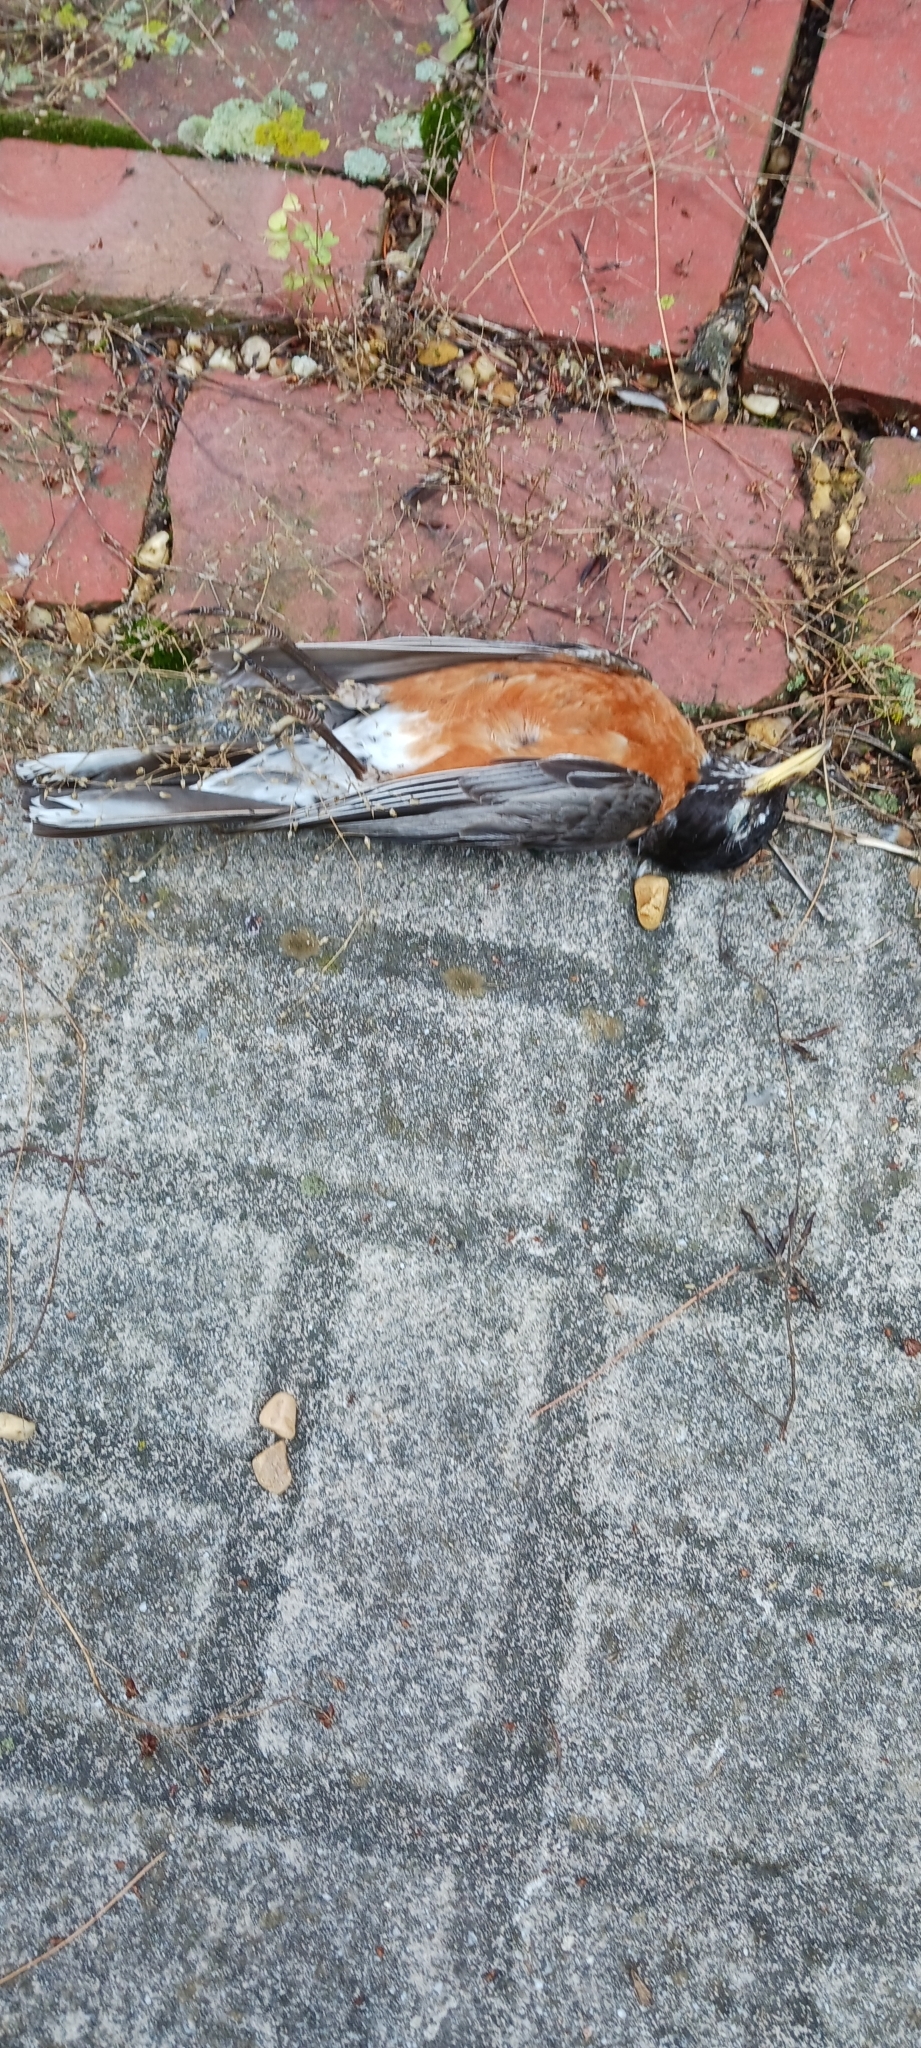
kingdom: Animalia
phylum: Chordata
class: Aves
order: Passeriformes
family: Turdidae
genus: Turdus
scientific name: Turdus migratorius
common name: American robin
